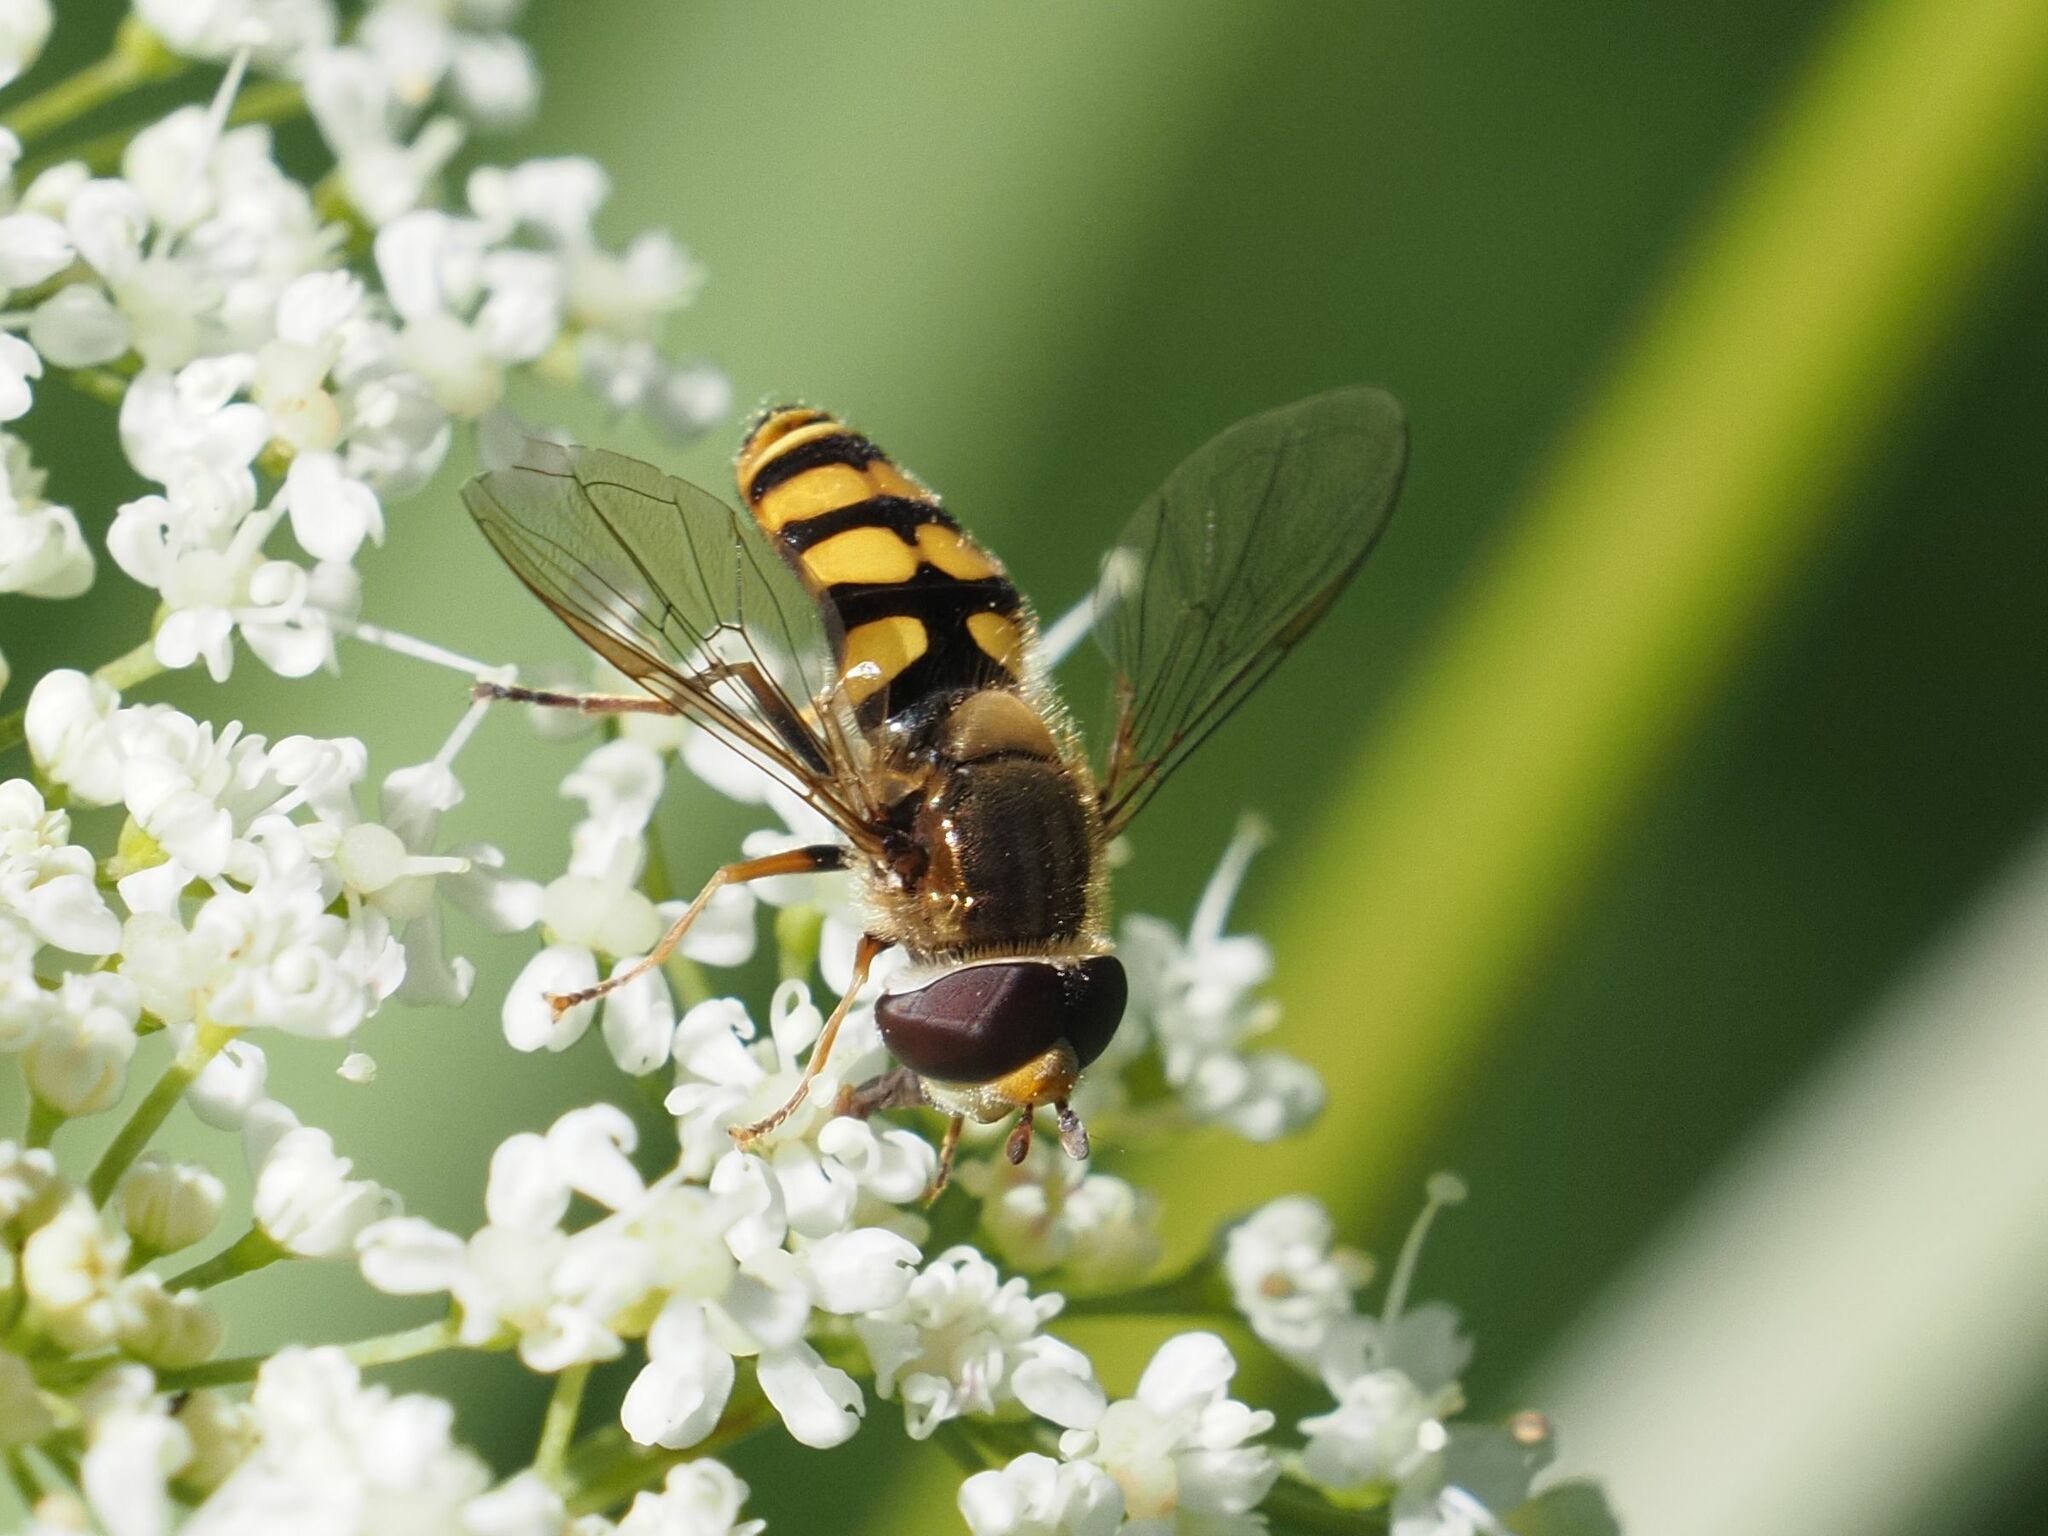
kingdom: Animalia
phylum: Arthropoda
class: Insecta
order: Diptera
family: Syrphidae
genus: Eupeodes
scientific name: Eupeodes corollae
